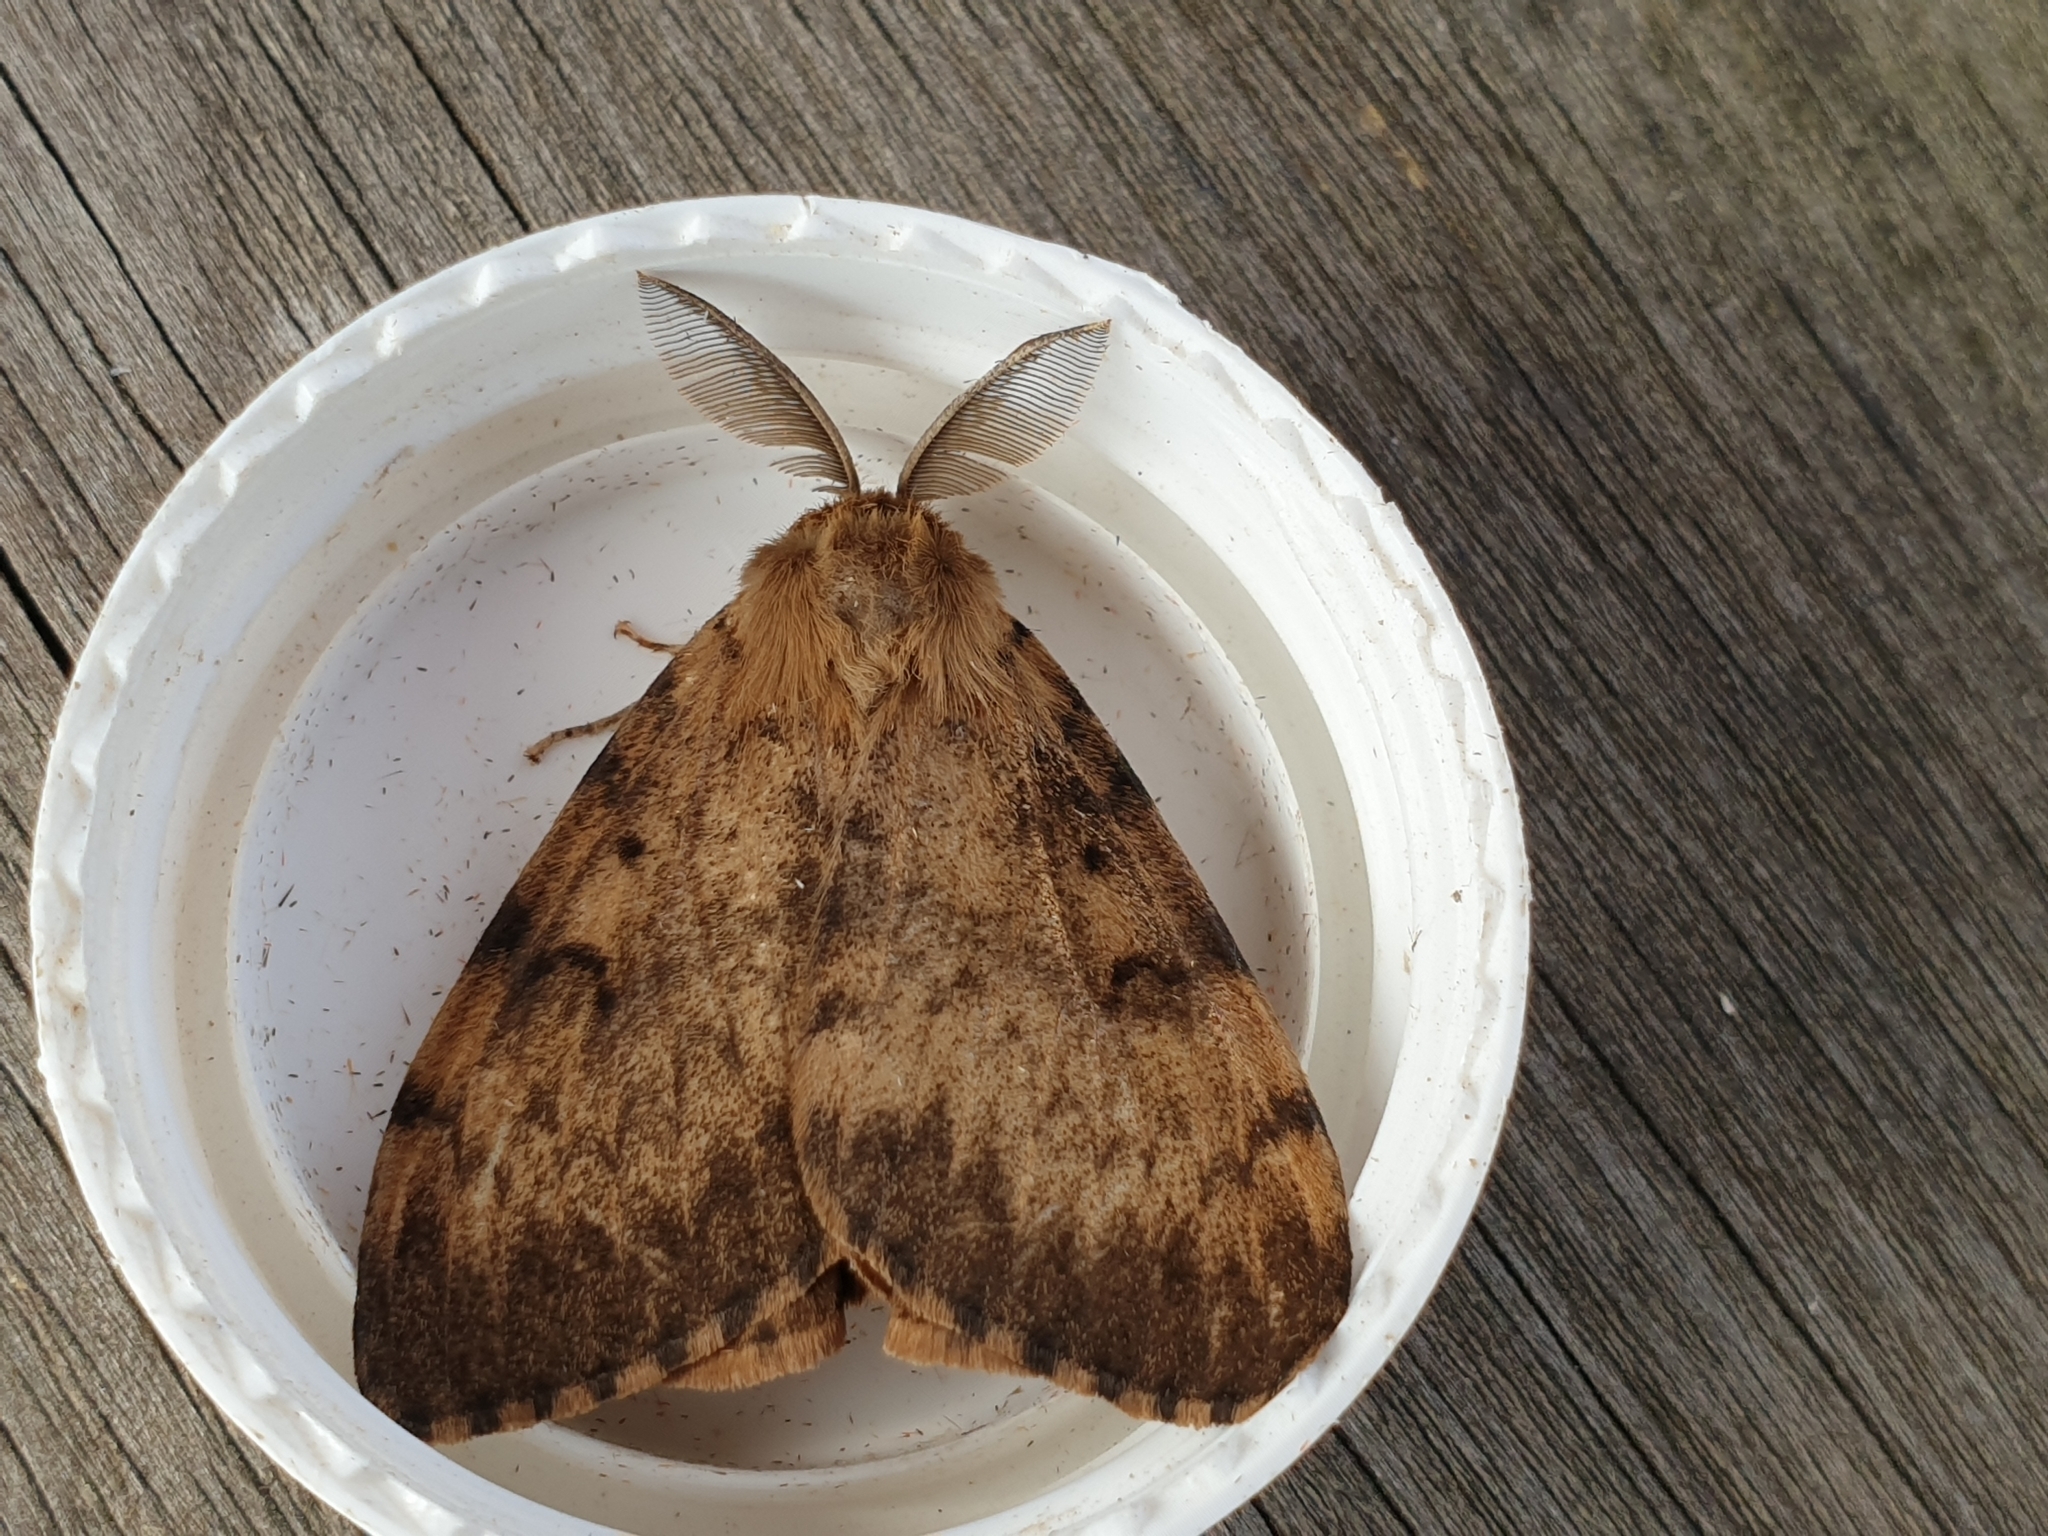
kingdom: Animalia
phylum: Arthropoda
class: Insecta
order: Lepidoptera
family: Erebidae
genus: Lymantria
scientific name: Lymantria dispar
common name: Gypsy moth
